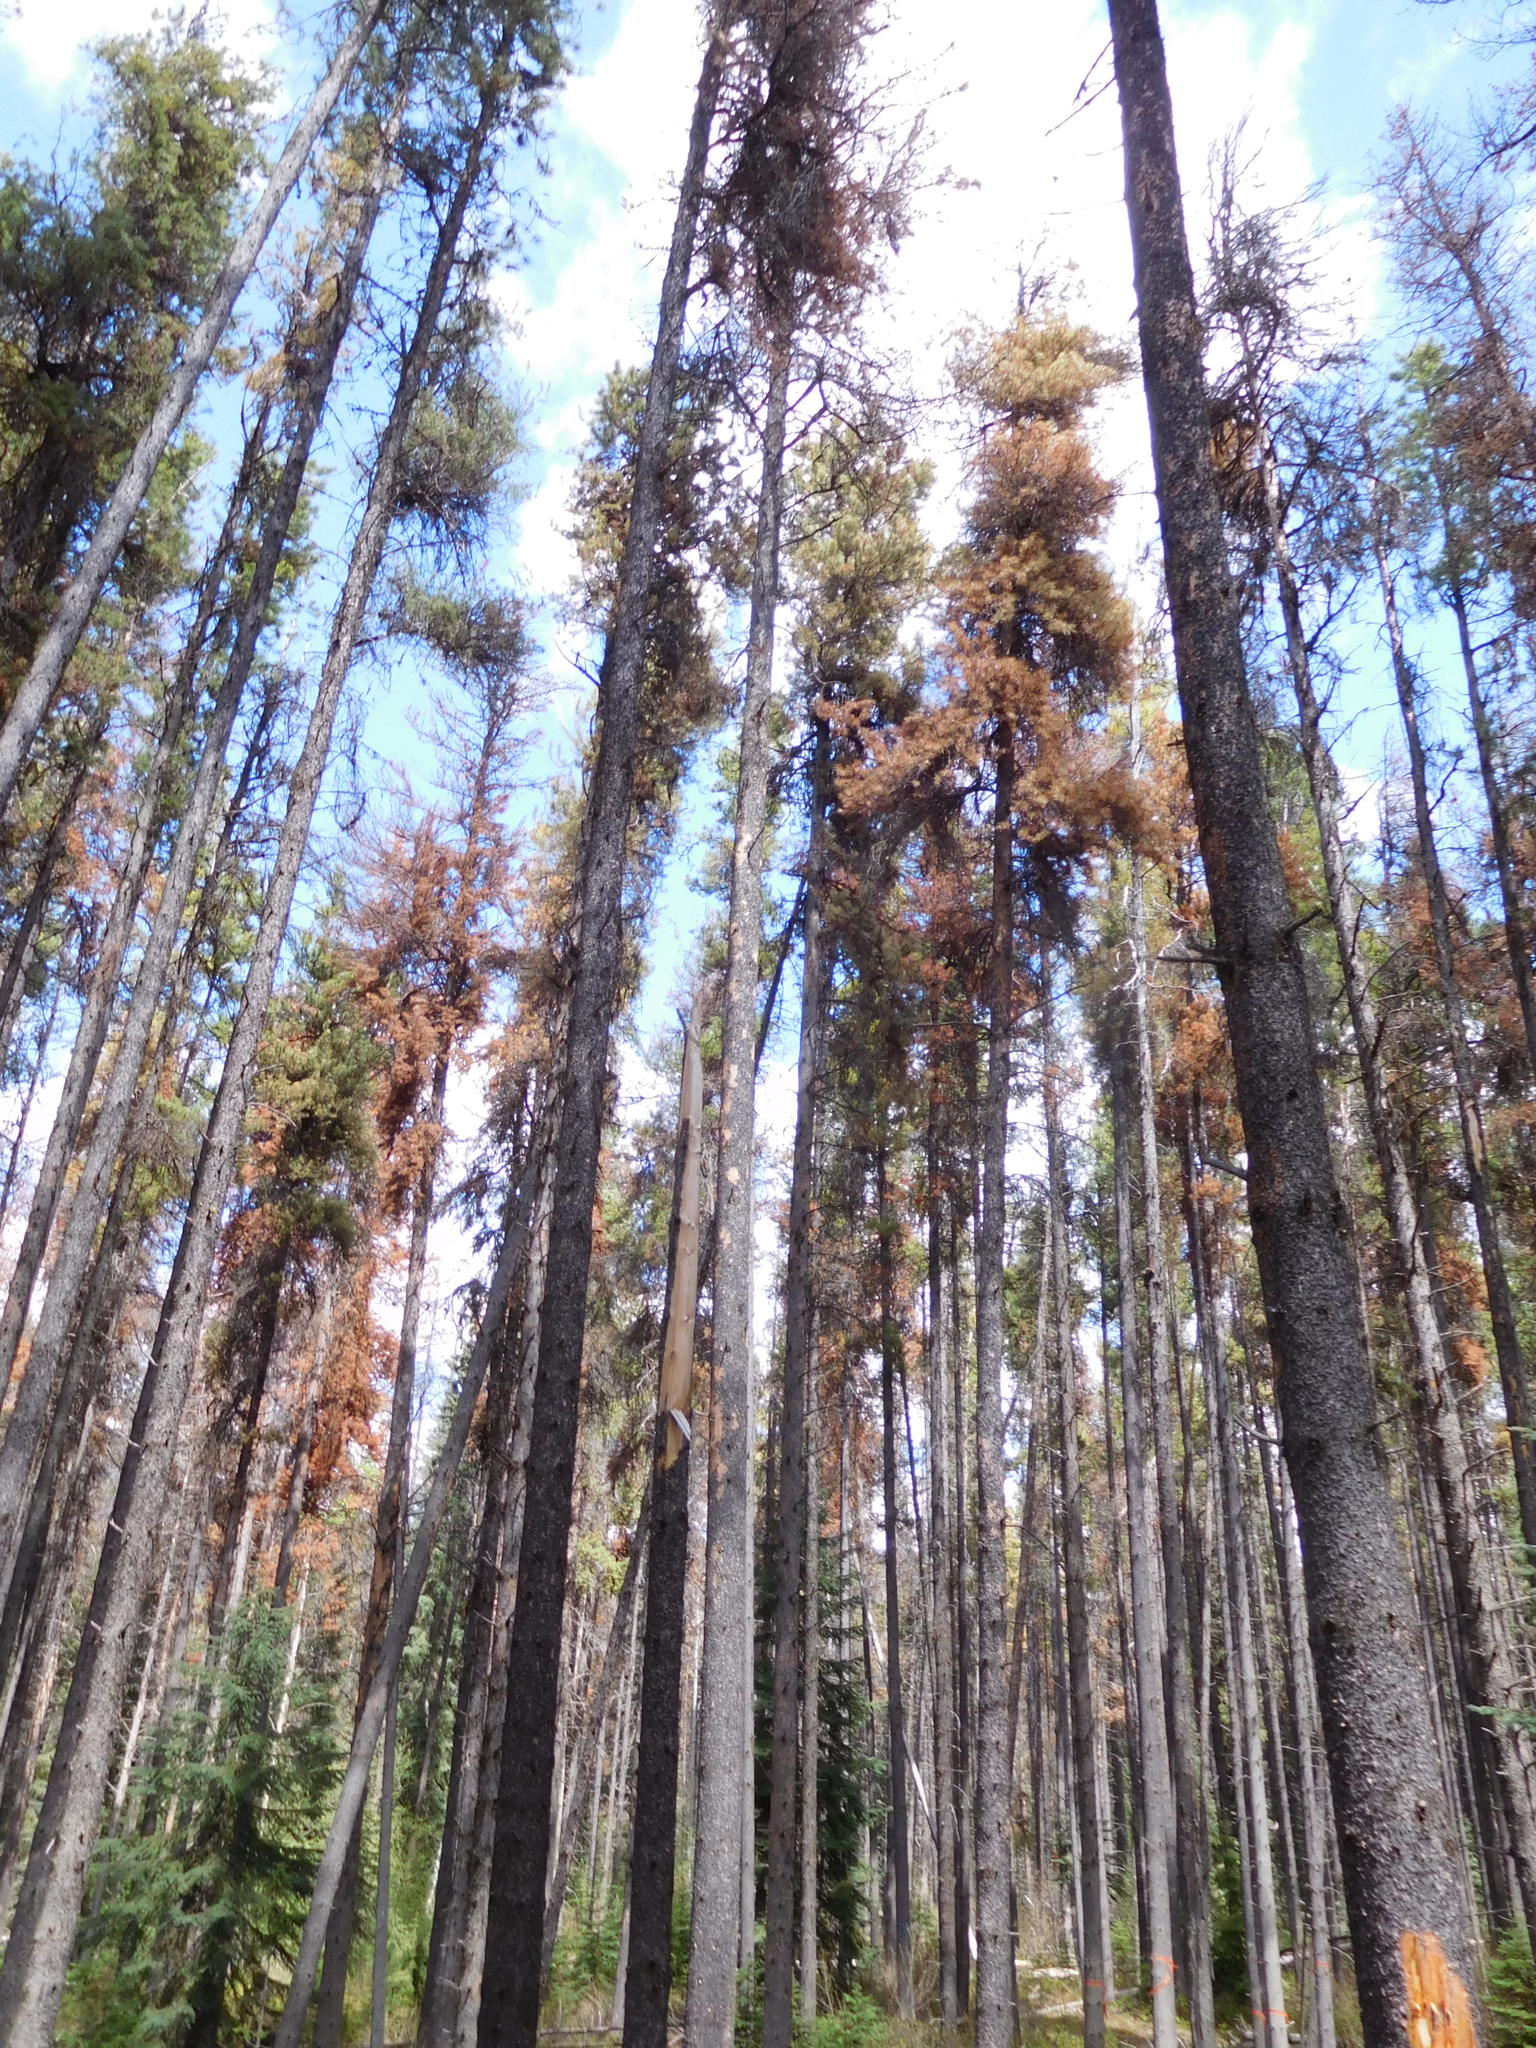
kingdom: Plantae
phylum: Tracheophyta
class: Pinopsida
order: Pinales
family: Pinaceae
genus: Pinus
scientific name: Pinus contorta
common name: Lodgepole pine
